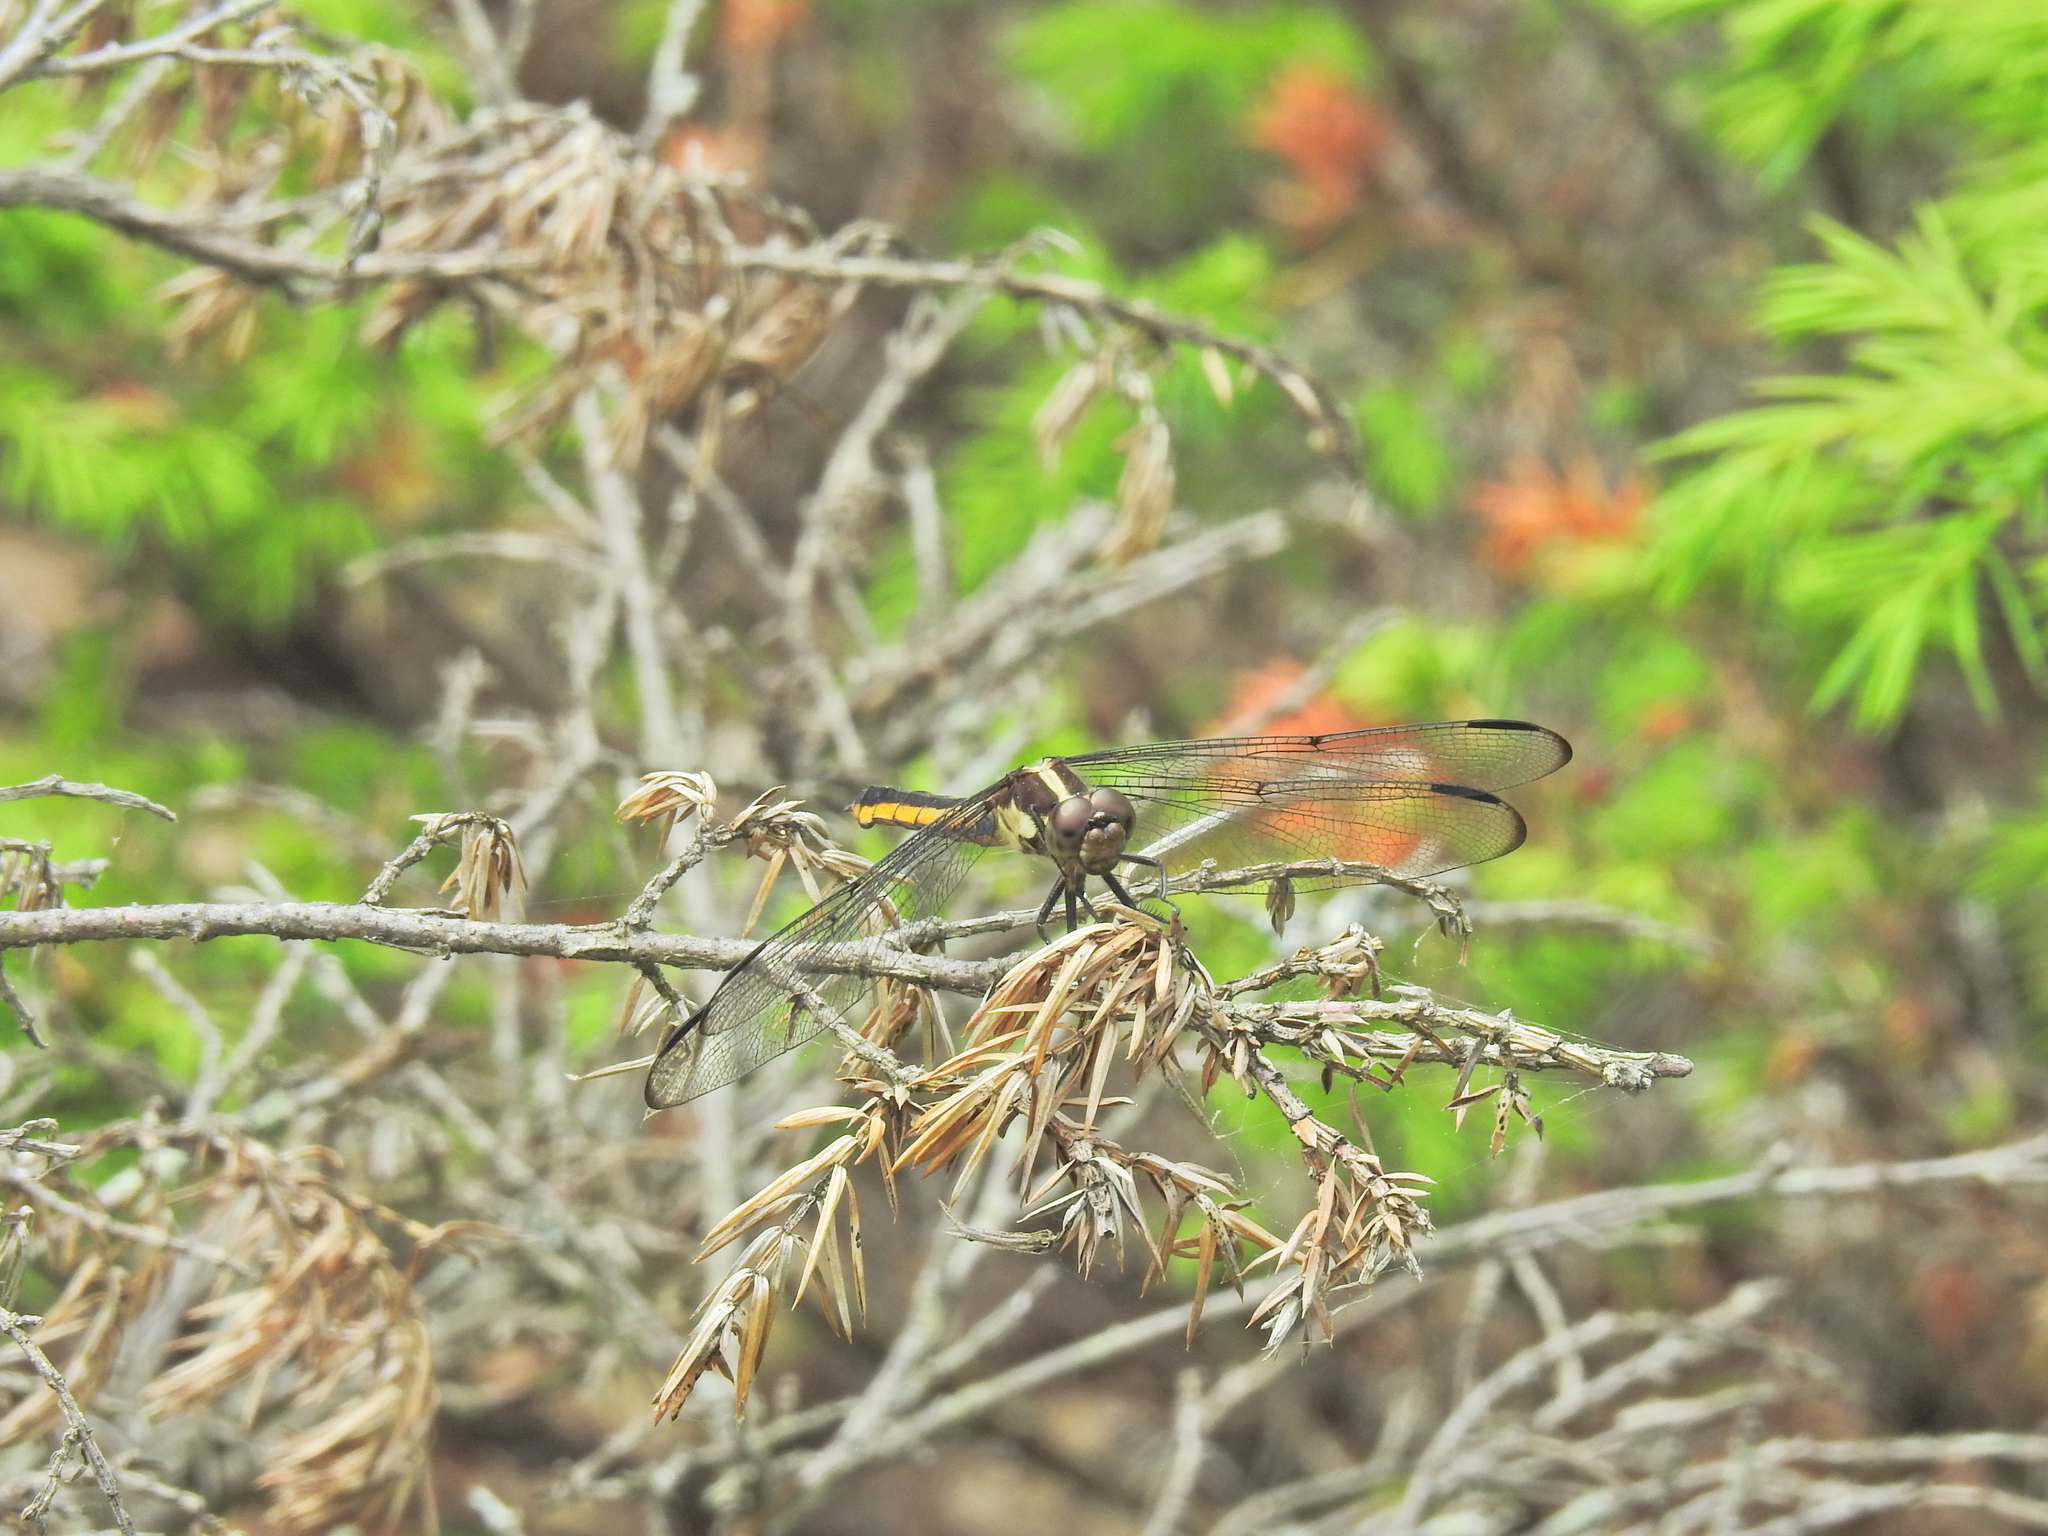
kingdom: Animalia
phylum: Arthropoda
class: Insecta
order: Odonata
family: Libellulidae
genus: Libellula
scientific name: Libellula incesta
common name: Slaty skimmer
